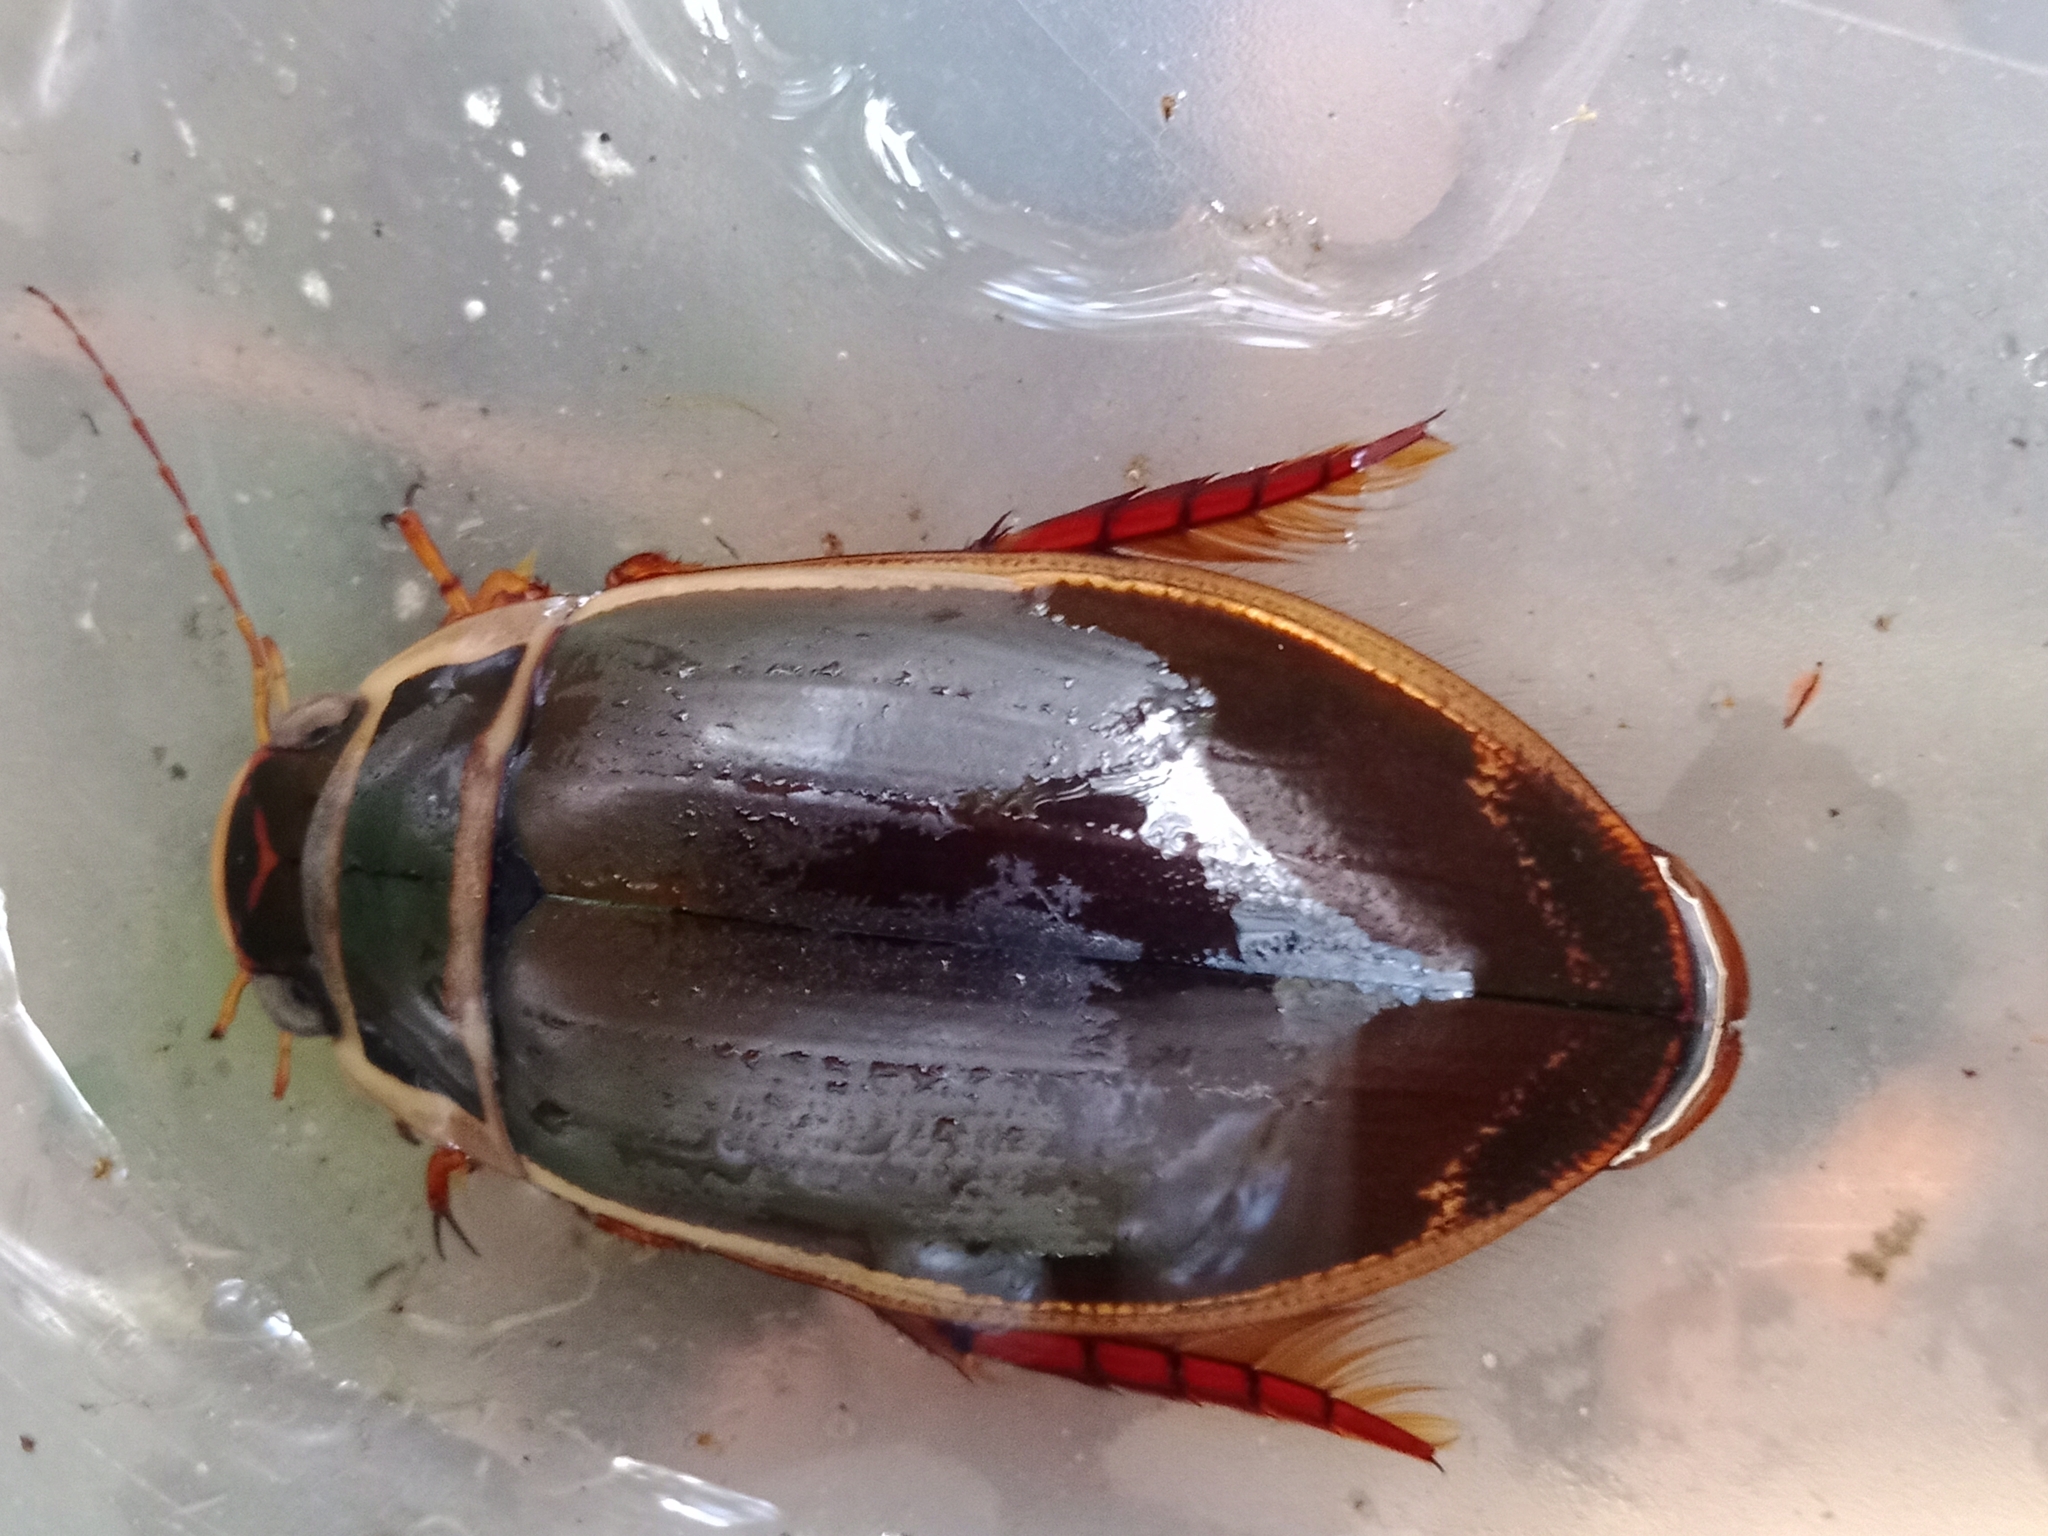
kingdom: Animalia
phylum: Arthropoda
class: Insecta
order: Coleoptera
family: Dytiscidae
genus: Dytiscus
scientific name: Dytiscus marginalis
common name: Great water beetle
